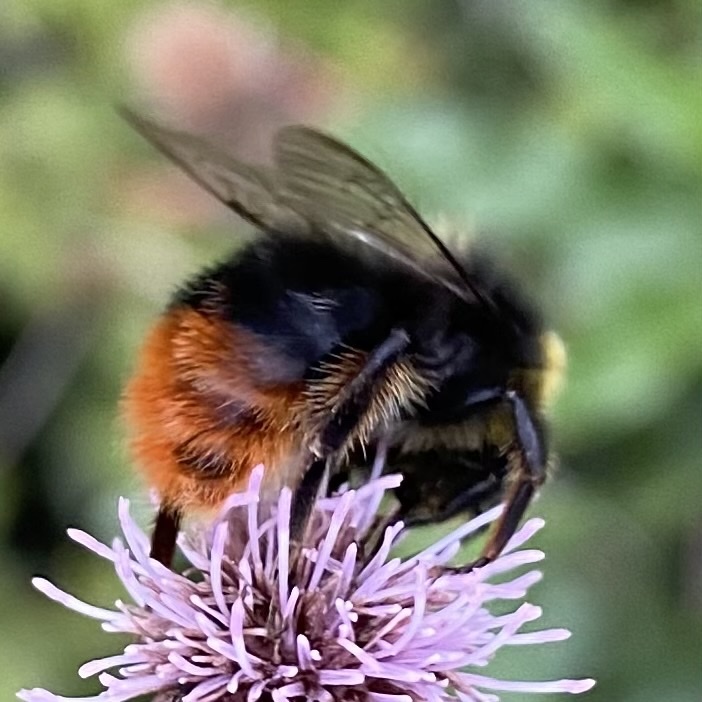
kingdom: Animalia
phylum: Arthropoda
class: Insecta
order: Hymenoptera
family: Apidae
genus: Bombus
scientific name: Bombus lapidarius
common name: Large red-tailed humble-bee
